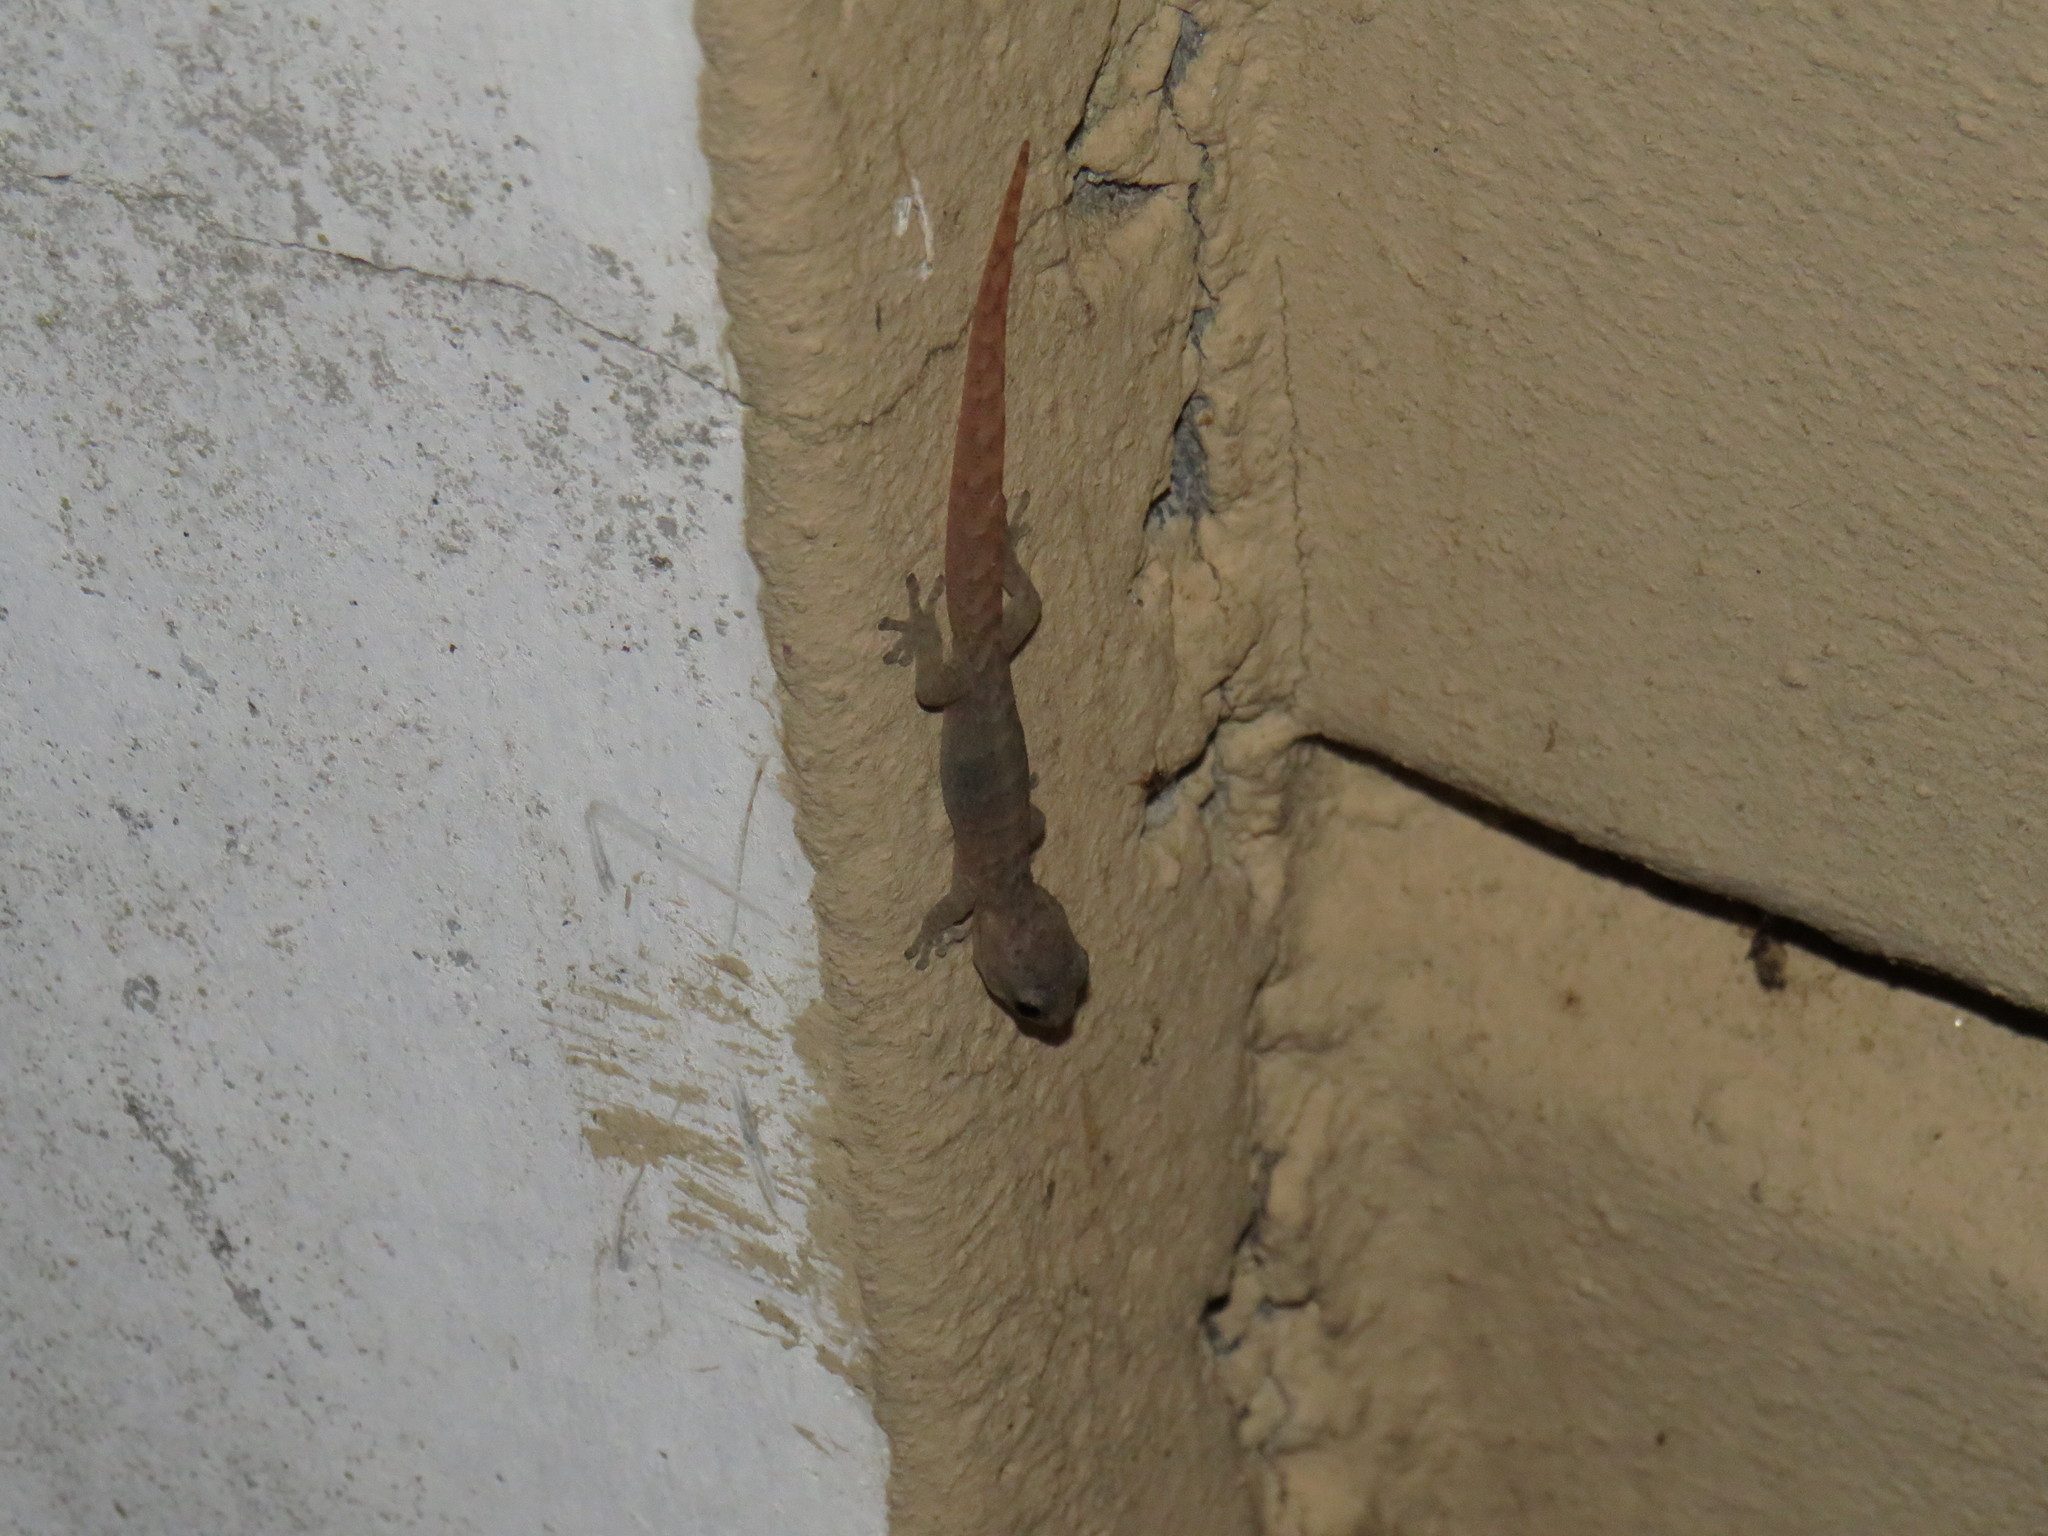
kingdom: Animalia
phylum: Chordata
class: Squamata
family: Gekkonidae
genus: Afrogecko
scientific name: Afrogecko porphyreus
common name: Marbled leaf-toed gecko
